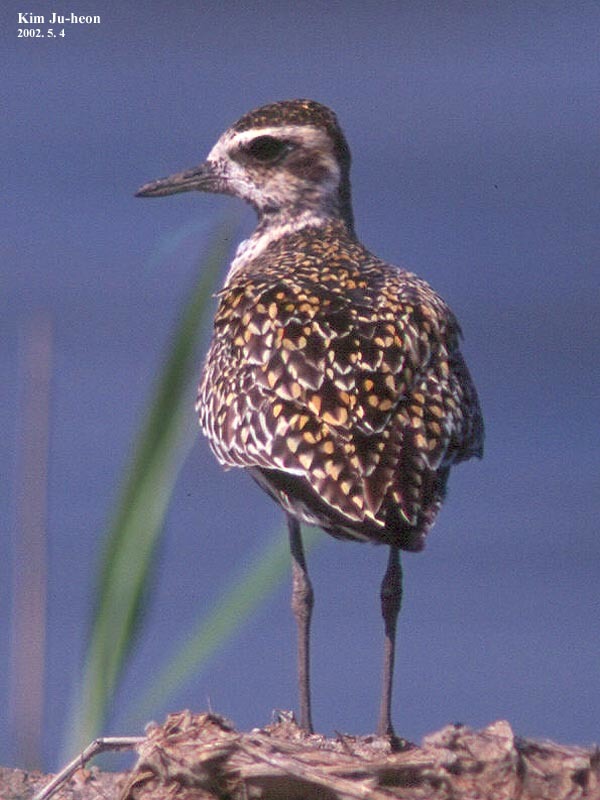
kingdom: Animalia
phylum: Chordata
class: Aves
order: Charadriiformes
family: Charadriidae
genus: Pluvialis
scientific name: Pluvialis fulva
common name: Pacific golden plover
